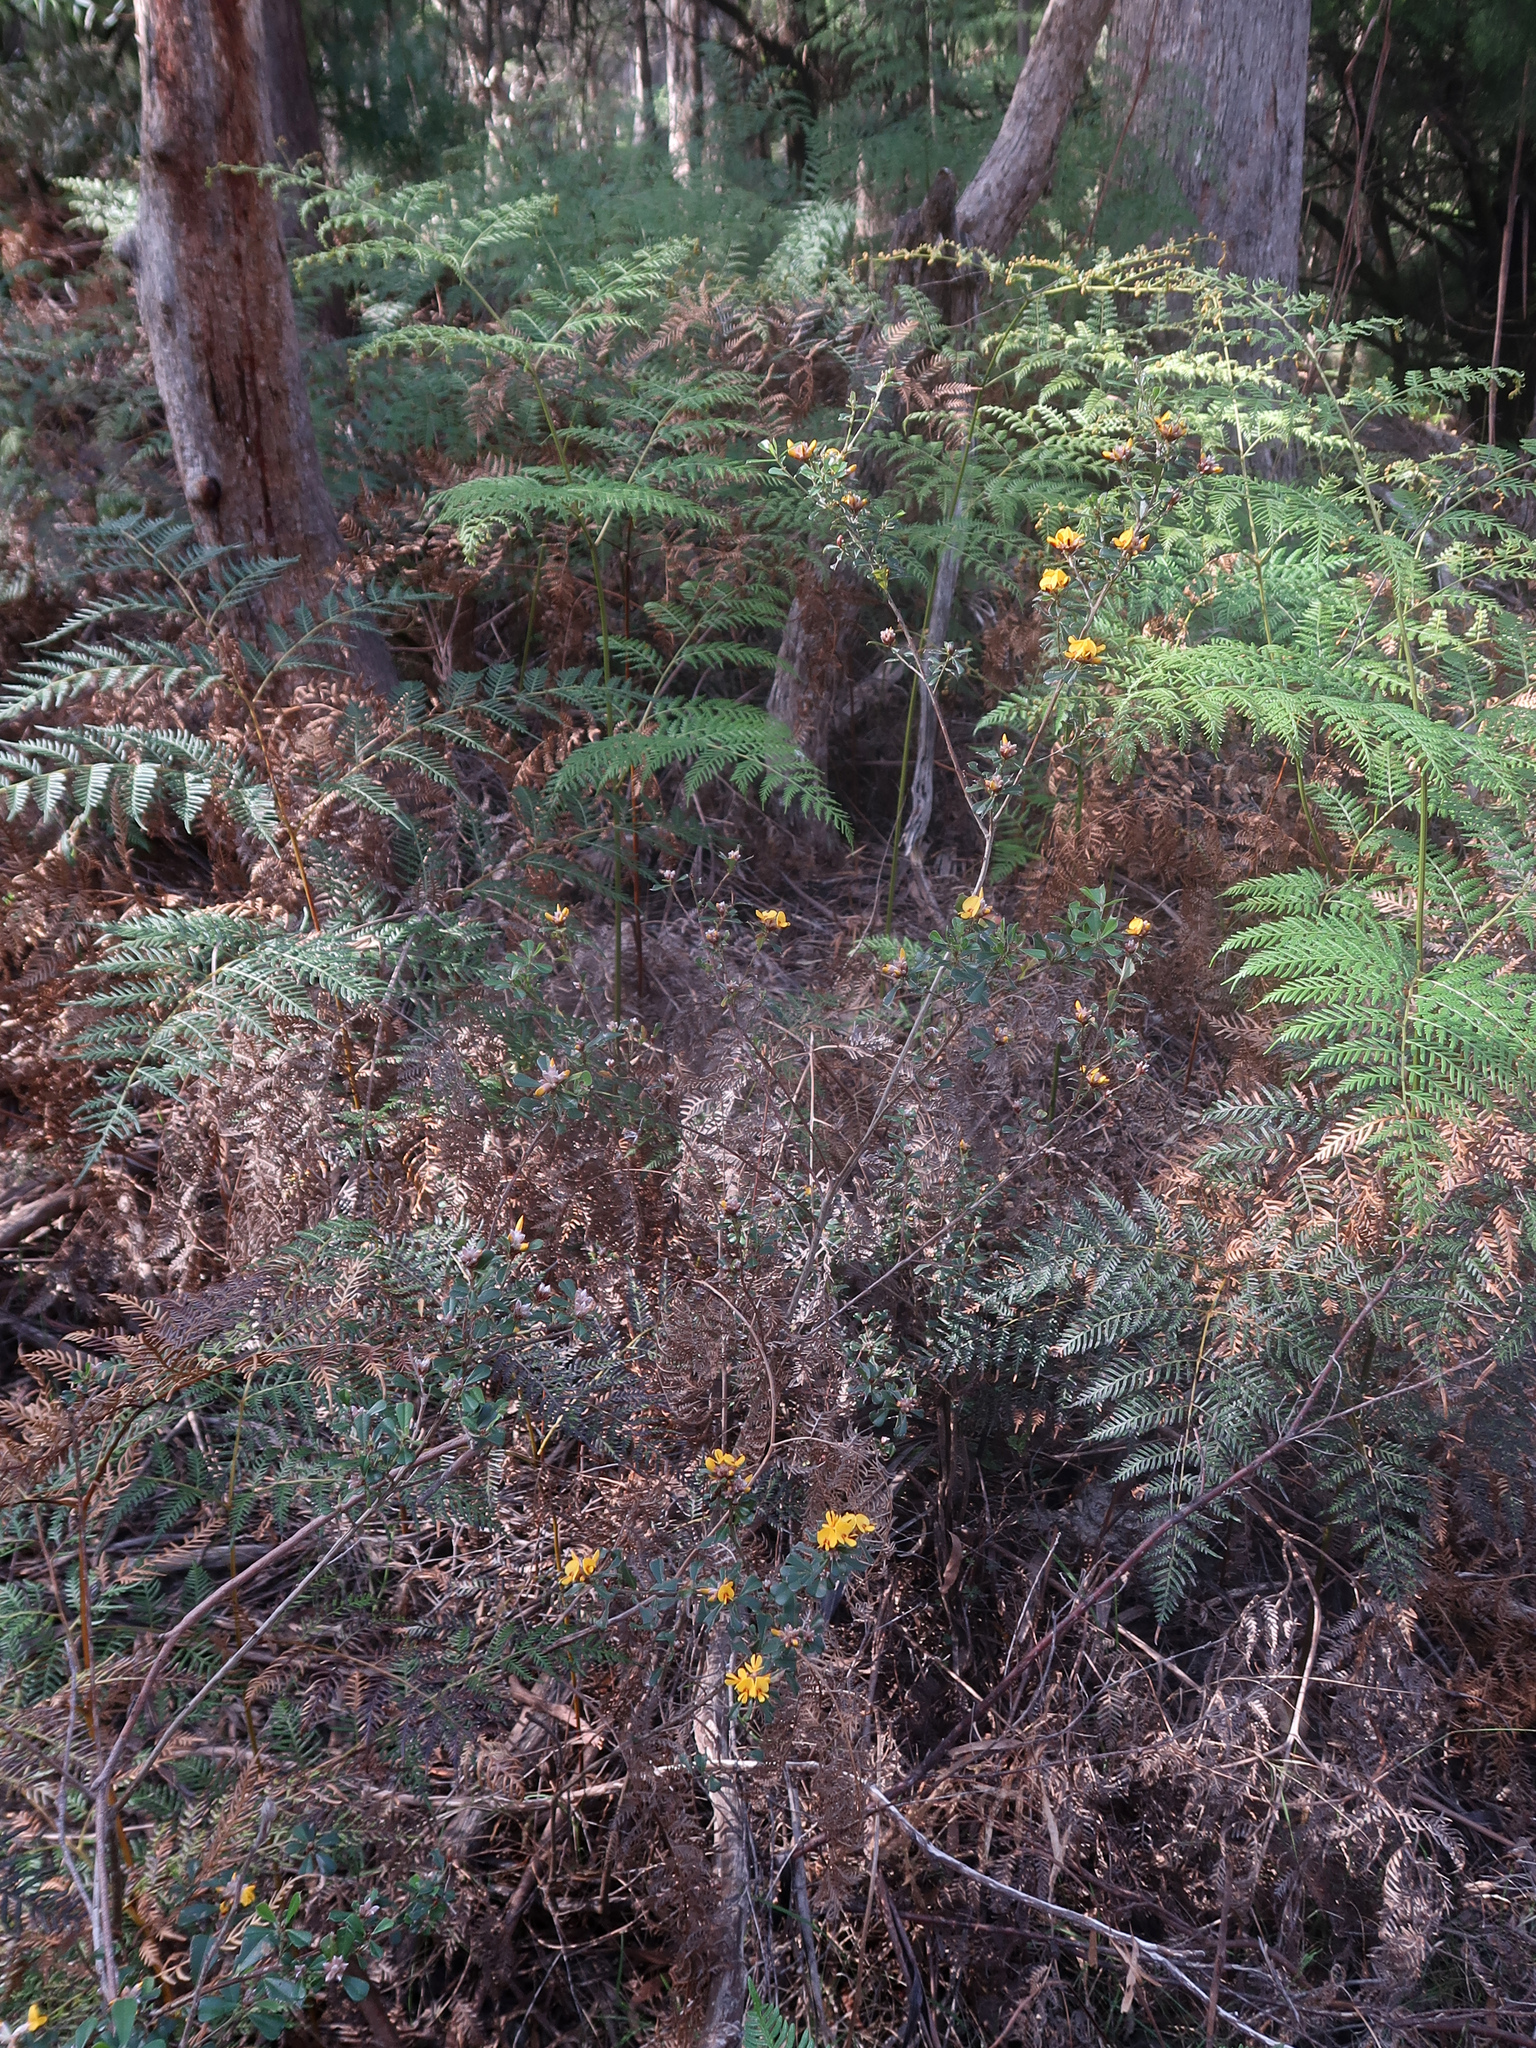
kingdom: Plantae
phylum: Tracheophyta
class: Magnoliopsida
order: Fabales
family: Fabaceae
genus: Pultenaea
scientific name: Pultenaea daphnoides
